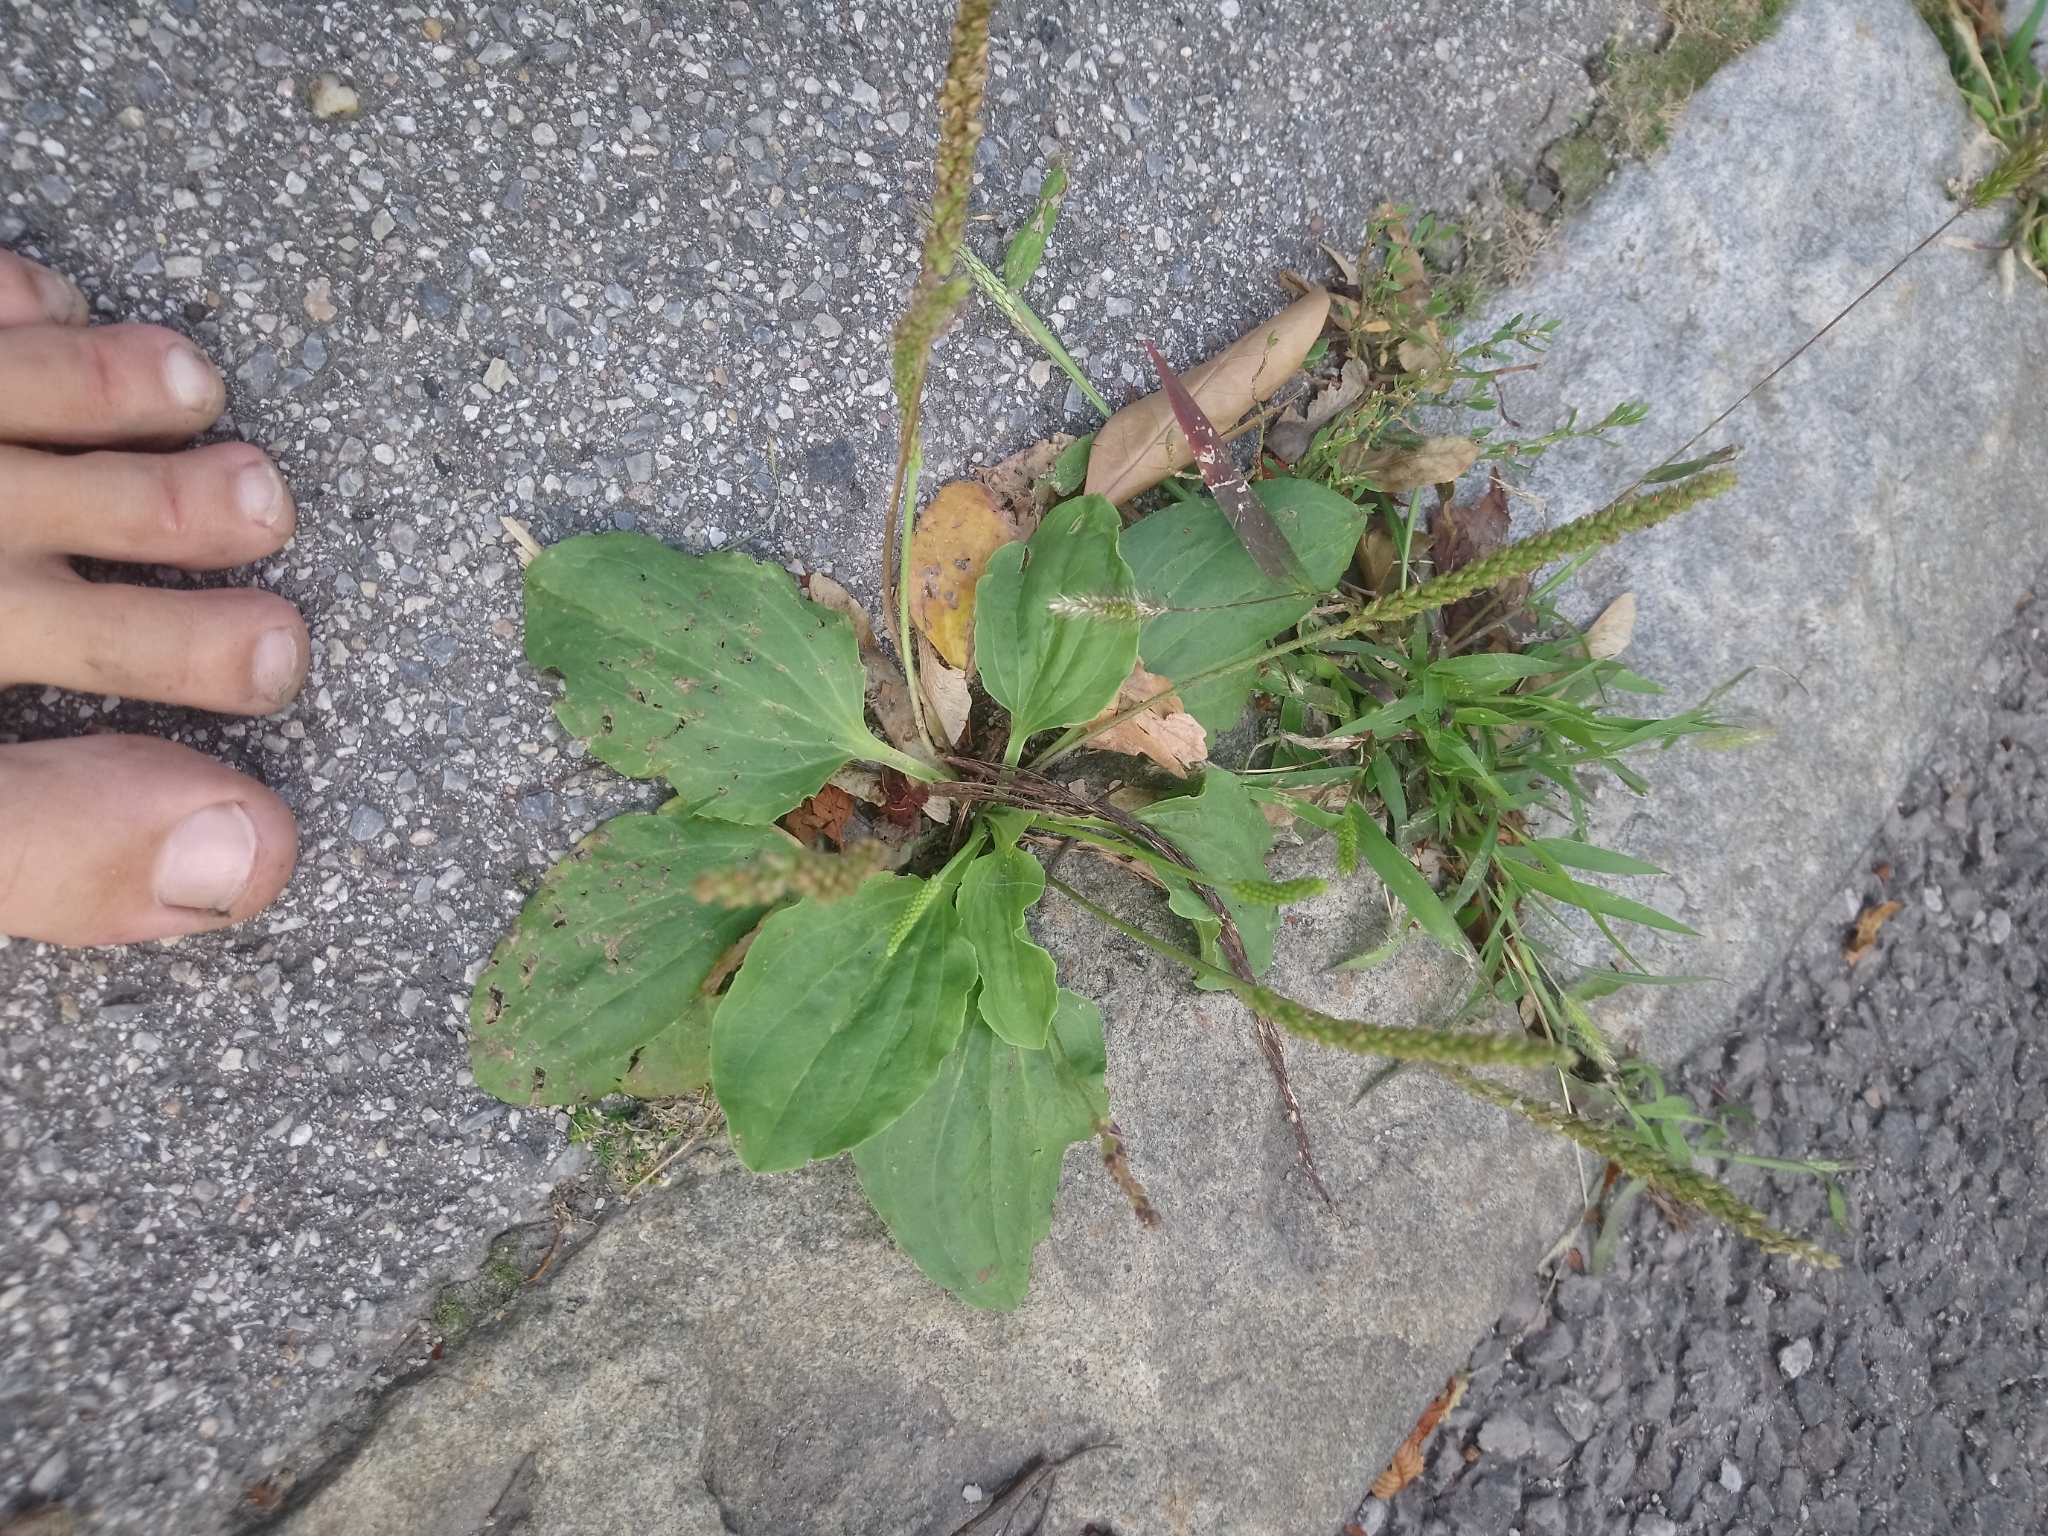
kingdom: Plantae
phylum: Tracheophyta
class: Magnoliopsida
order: Lamiales
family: Plantaginaceae
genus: Plantago
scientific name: Plantago major
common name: Common plantain
